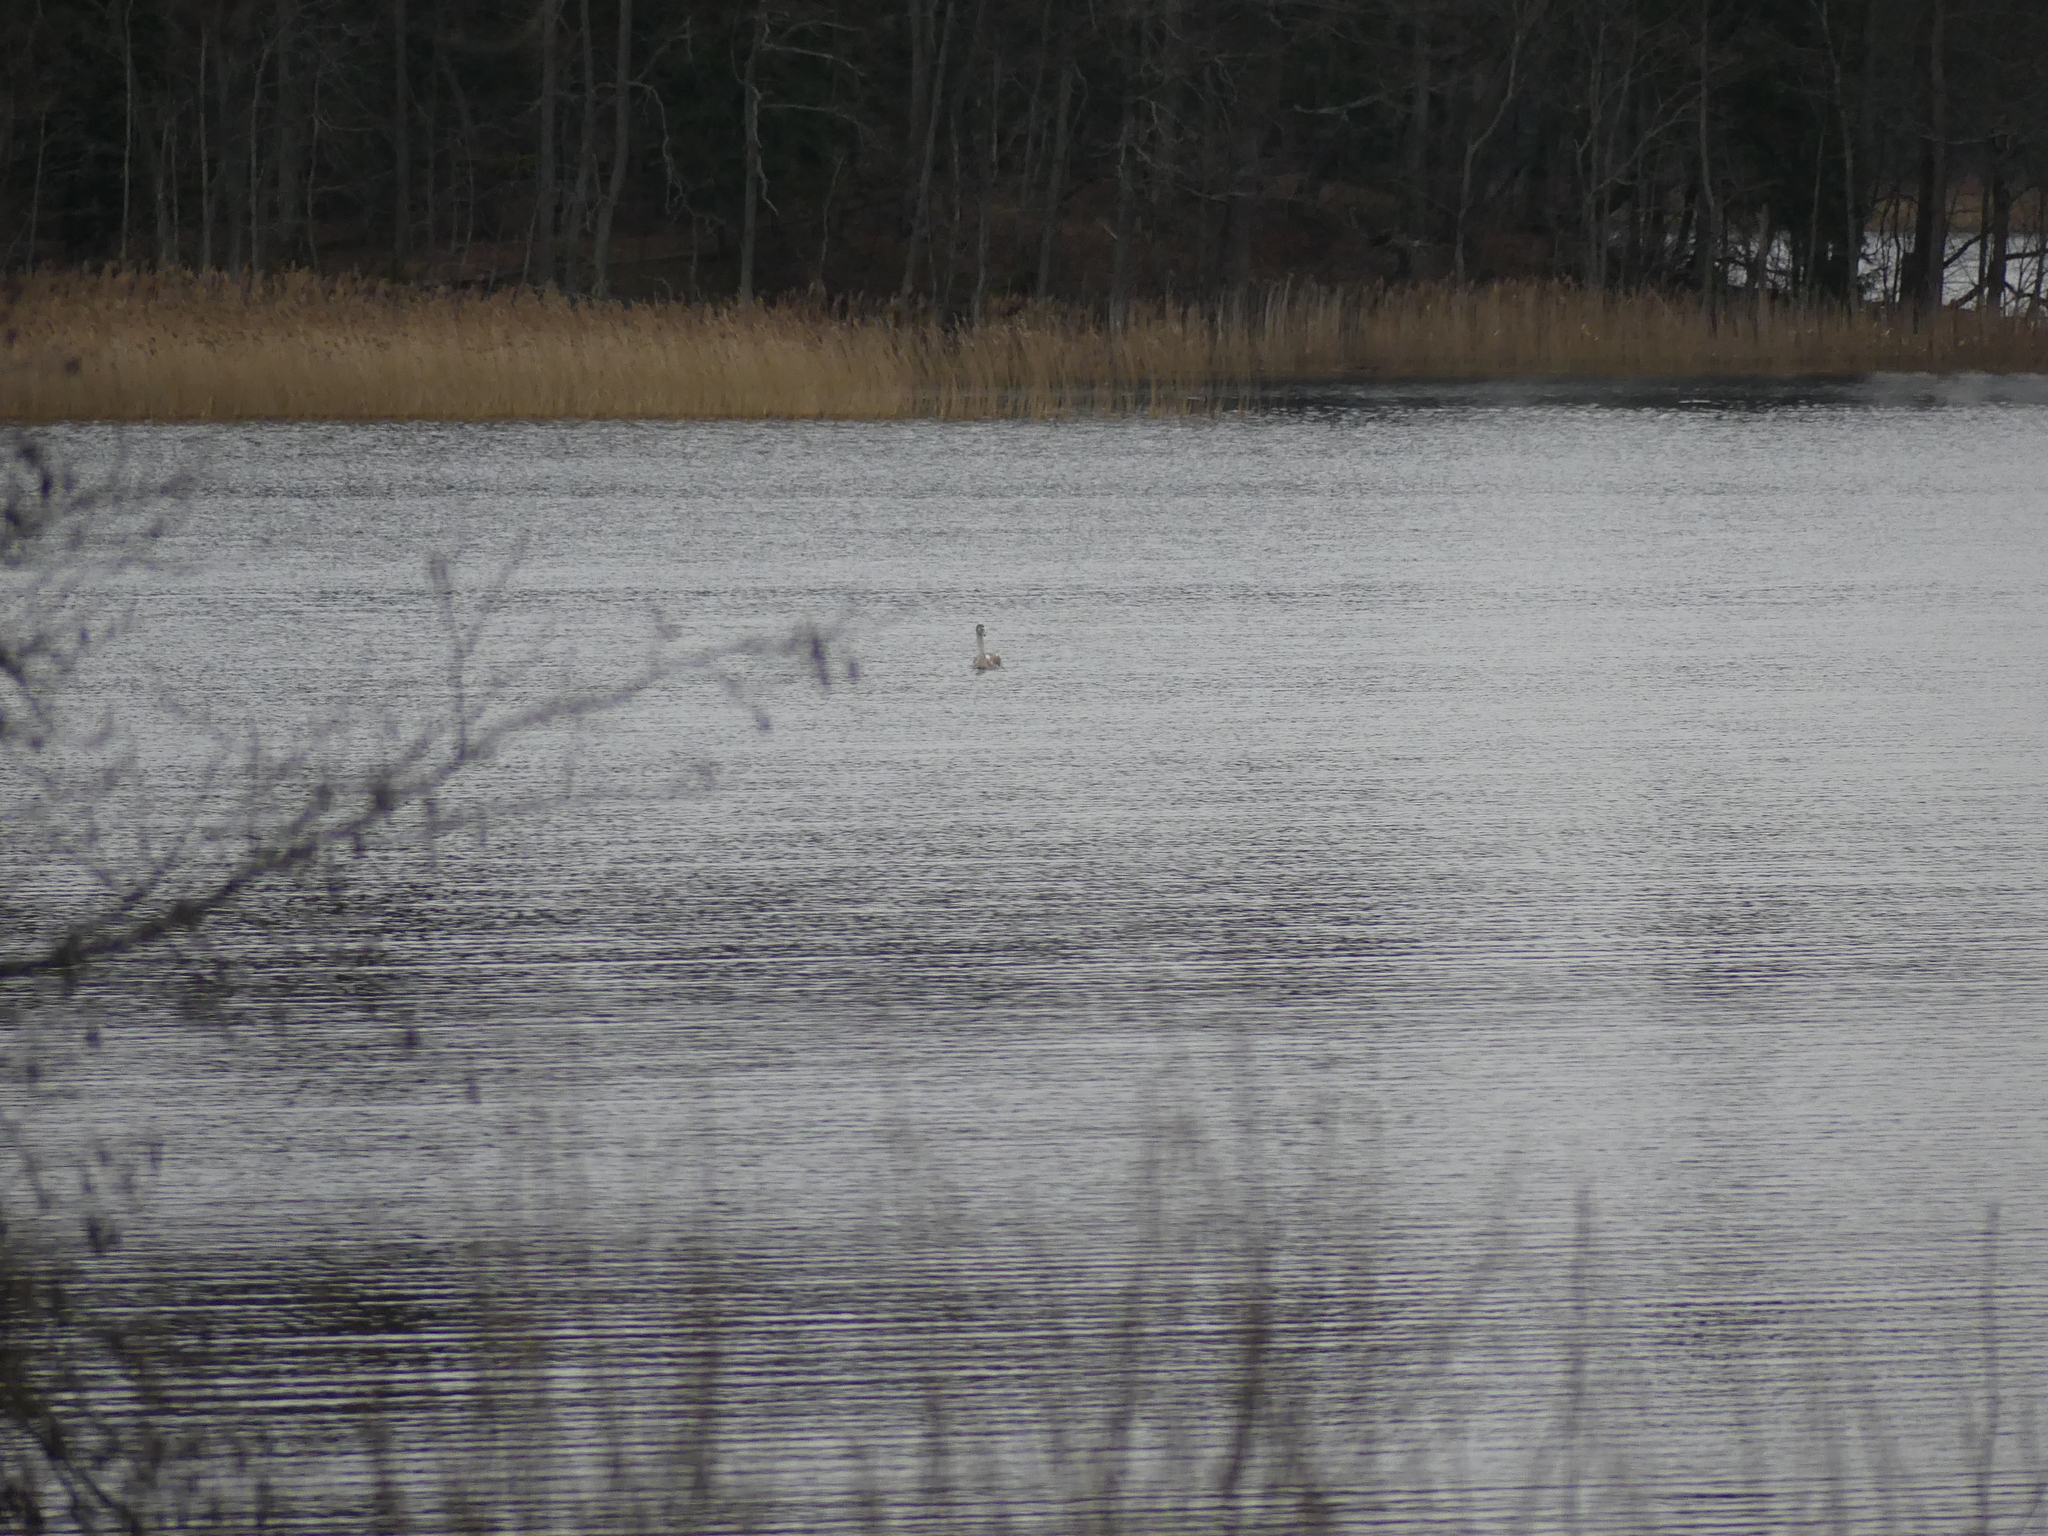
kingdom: Animalia
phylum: Chordata
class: Aves
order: Anseriformes
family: Anatidae
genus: Cygnus
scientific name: Cygnus olor
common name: Mute swan
